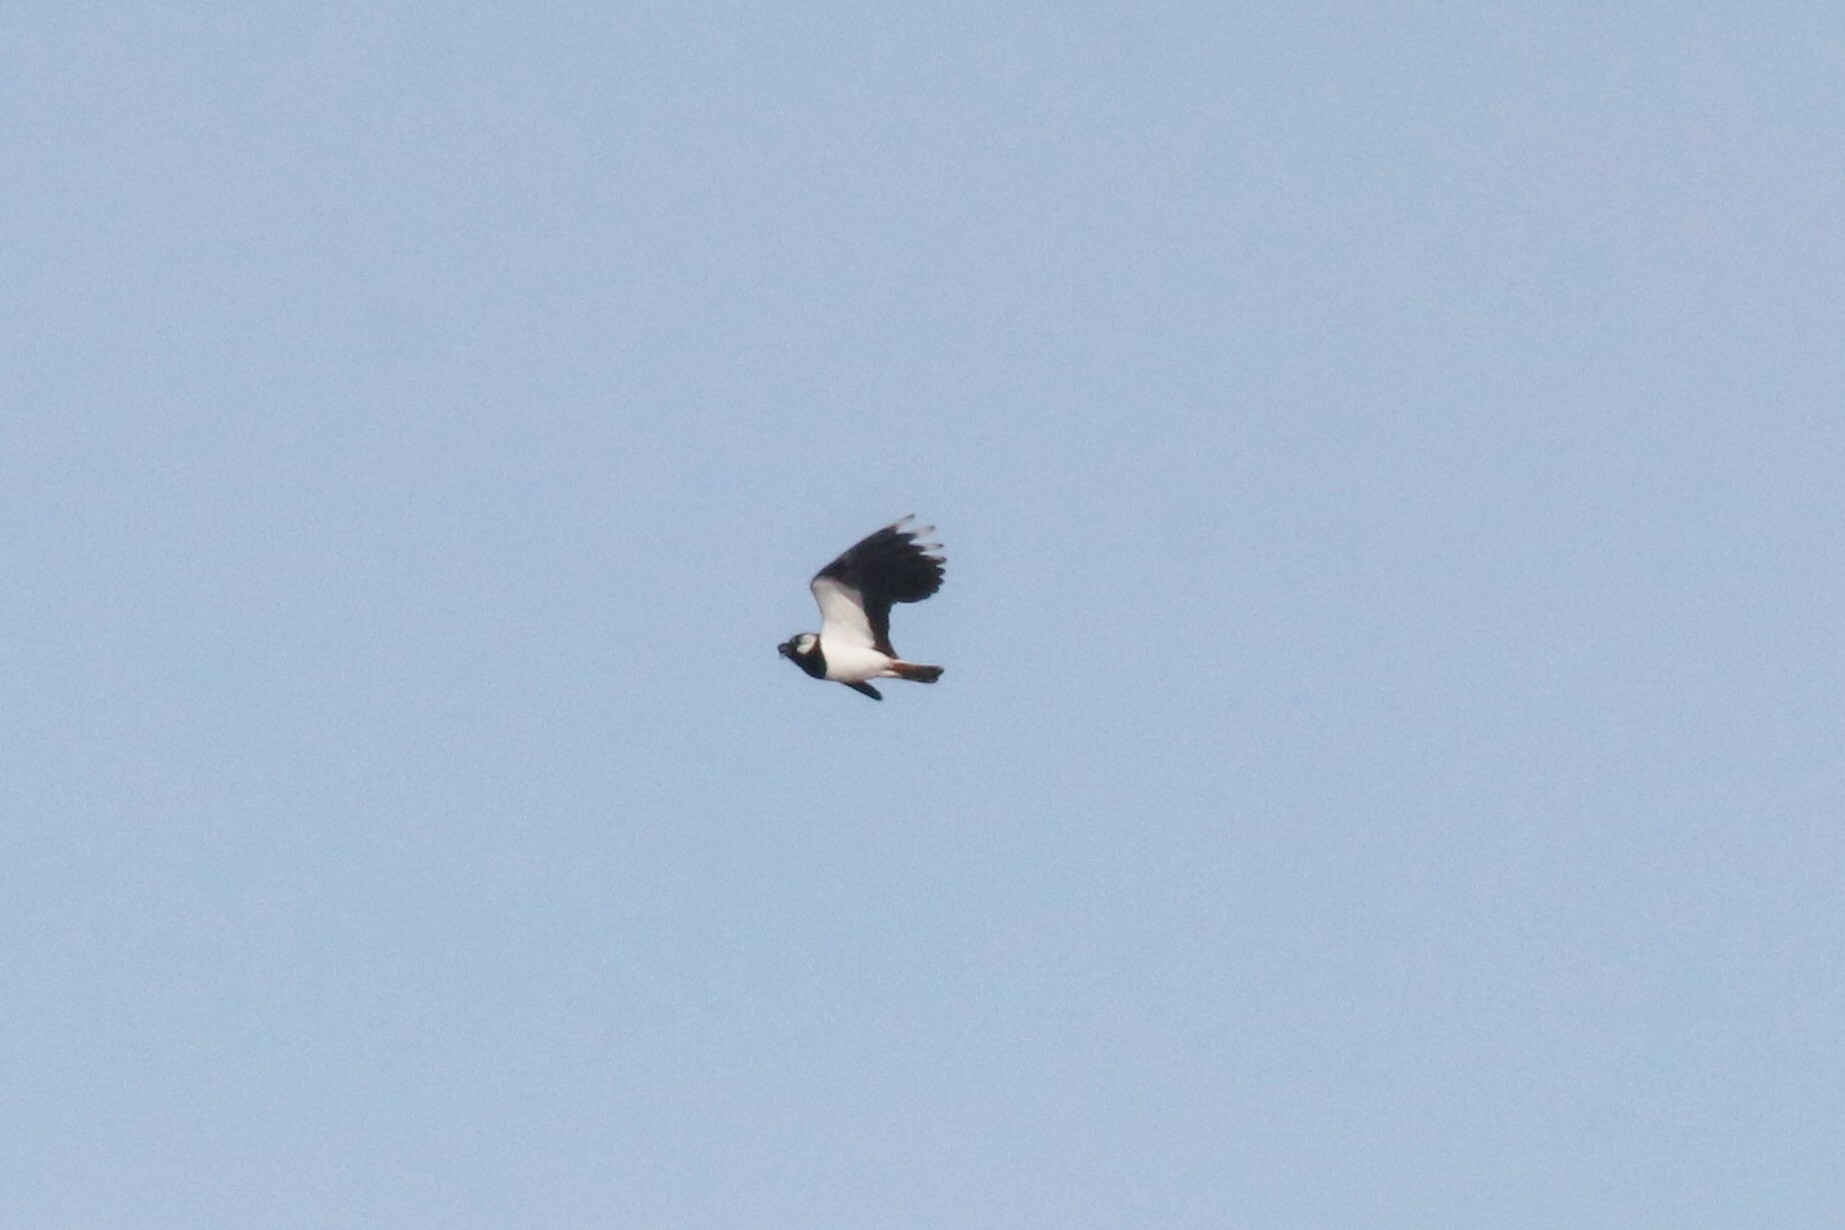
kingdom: Animalia
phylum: Chordata
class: Aves
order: Charadriiformes
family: Charadriidae
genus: Vanellus
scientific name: Vanellus vanellus
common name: Northern lapwing
